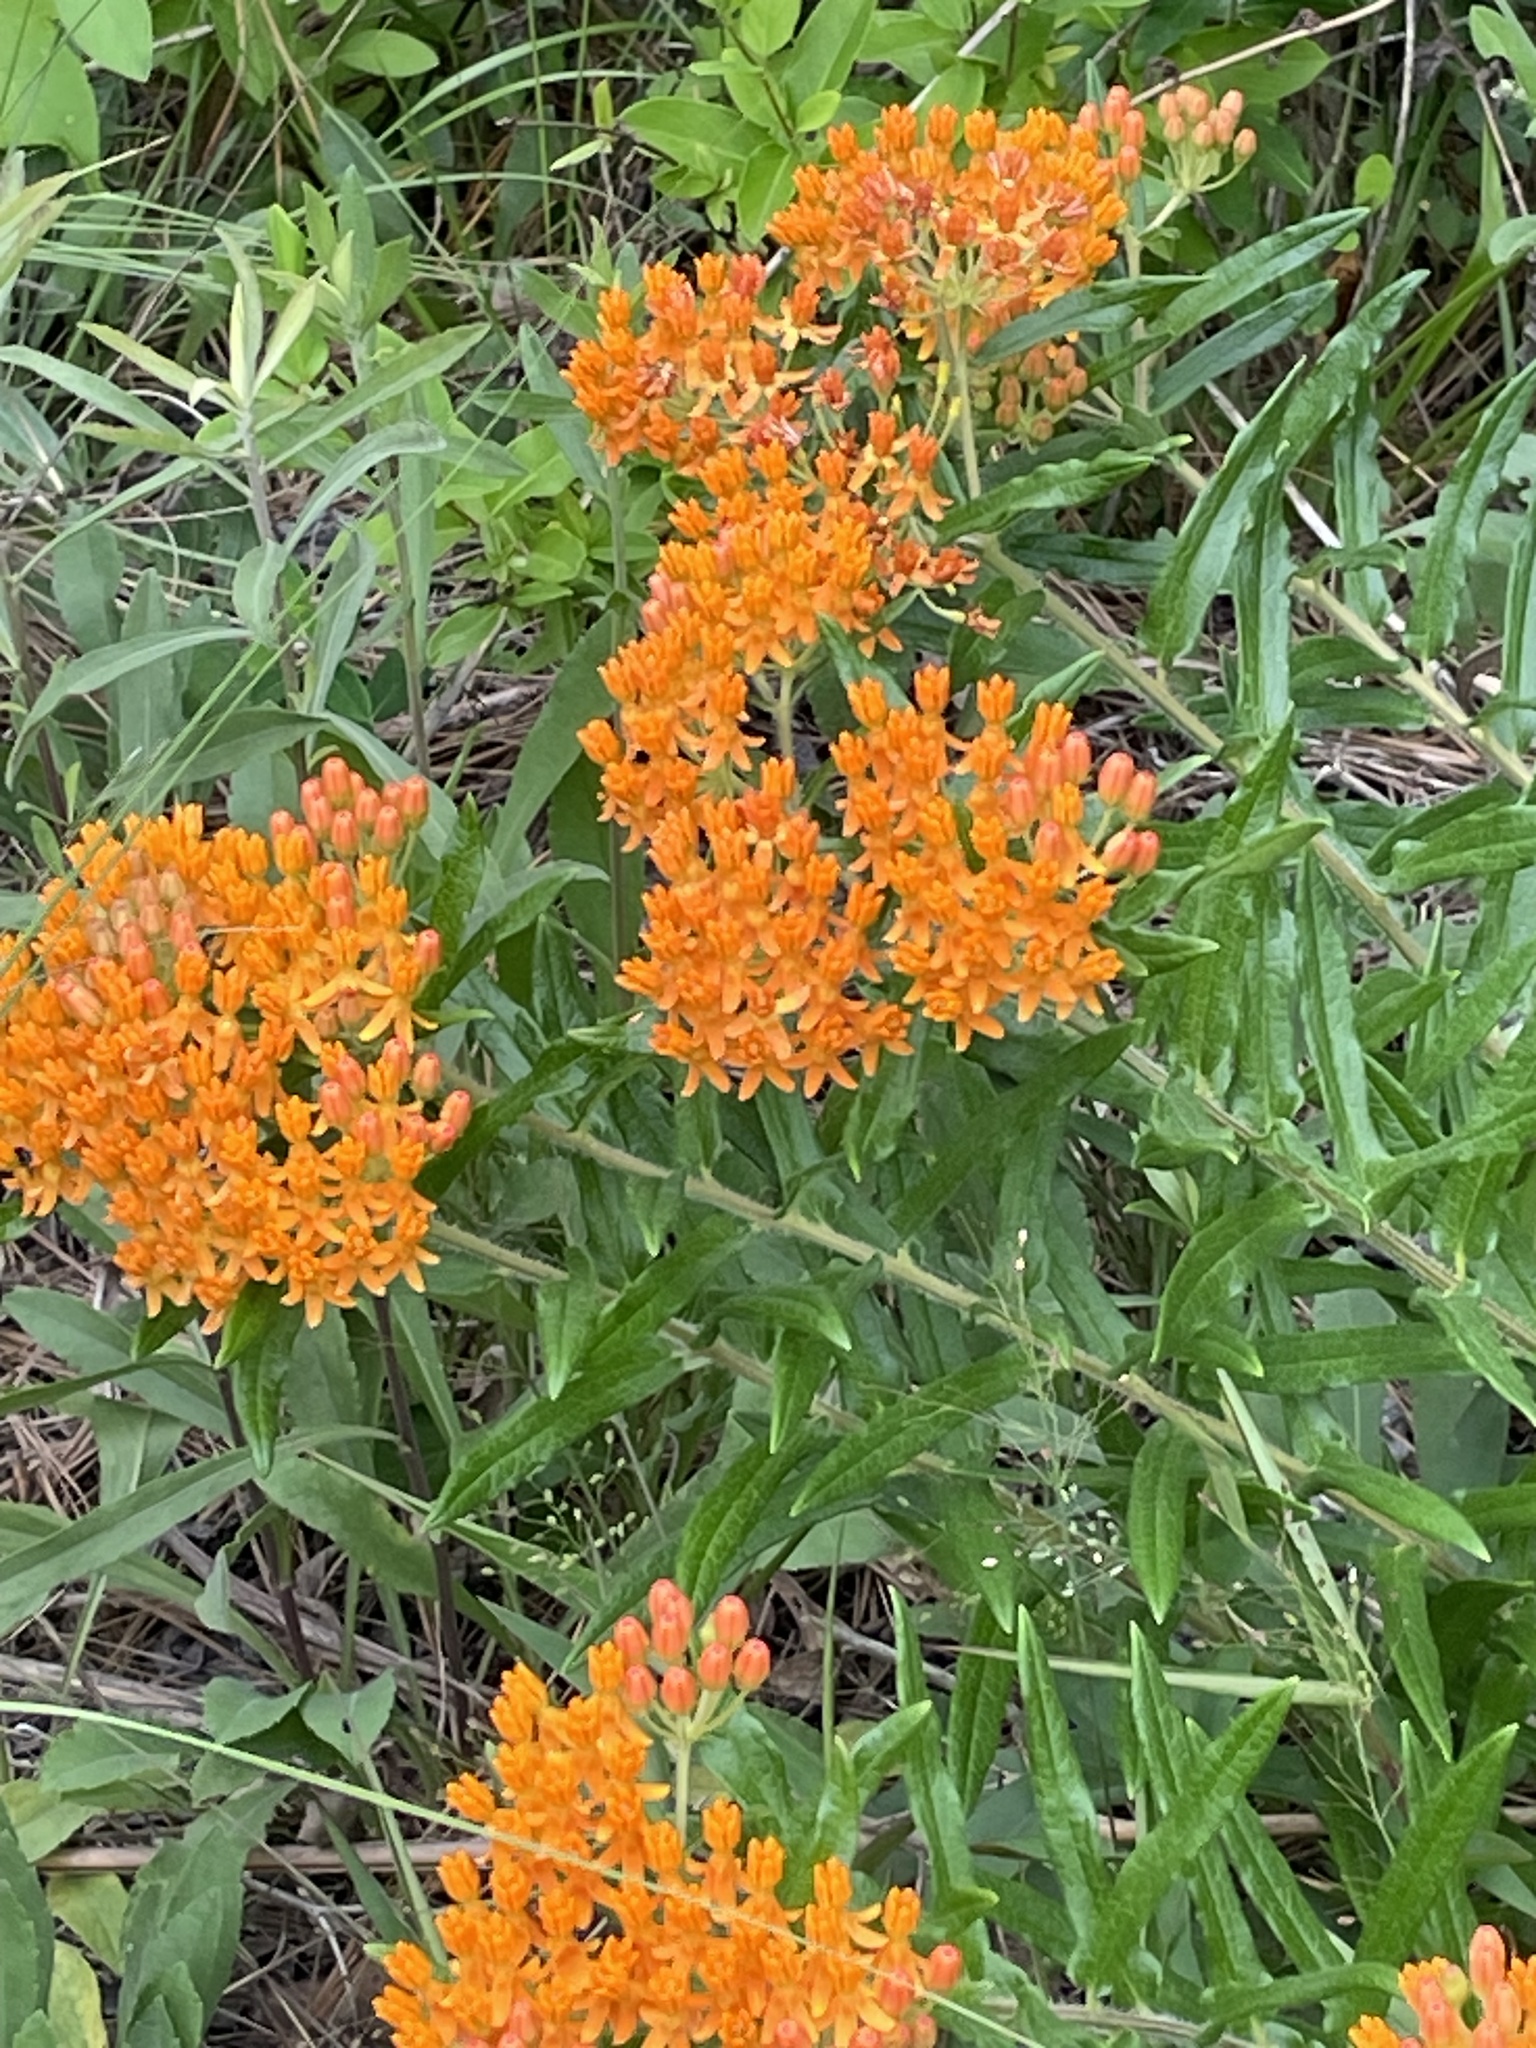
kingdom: Plantae
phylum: Tracheophyta
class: Magnoliopsida
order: Gentianales
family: Apocynaceae
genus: Asclepias
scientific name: Asclepias tuberosa
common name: Butterfly milkweed
